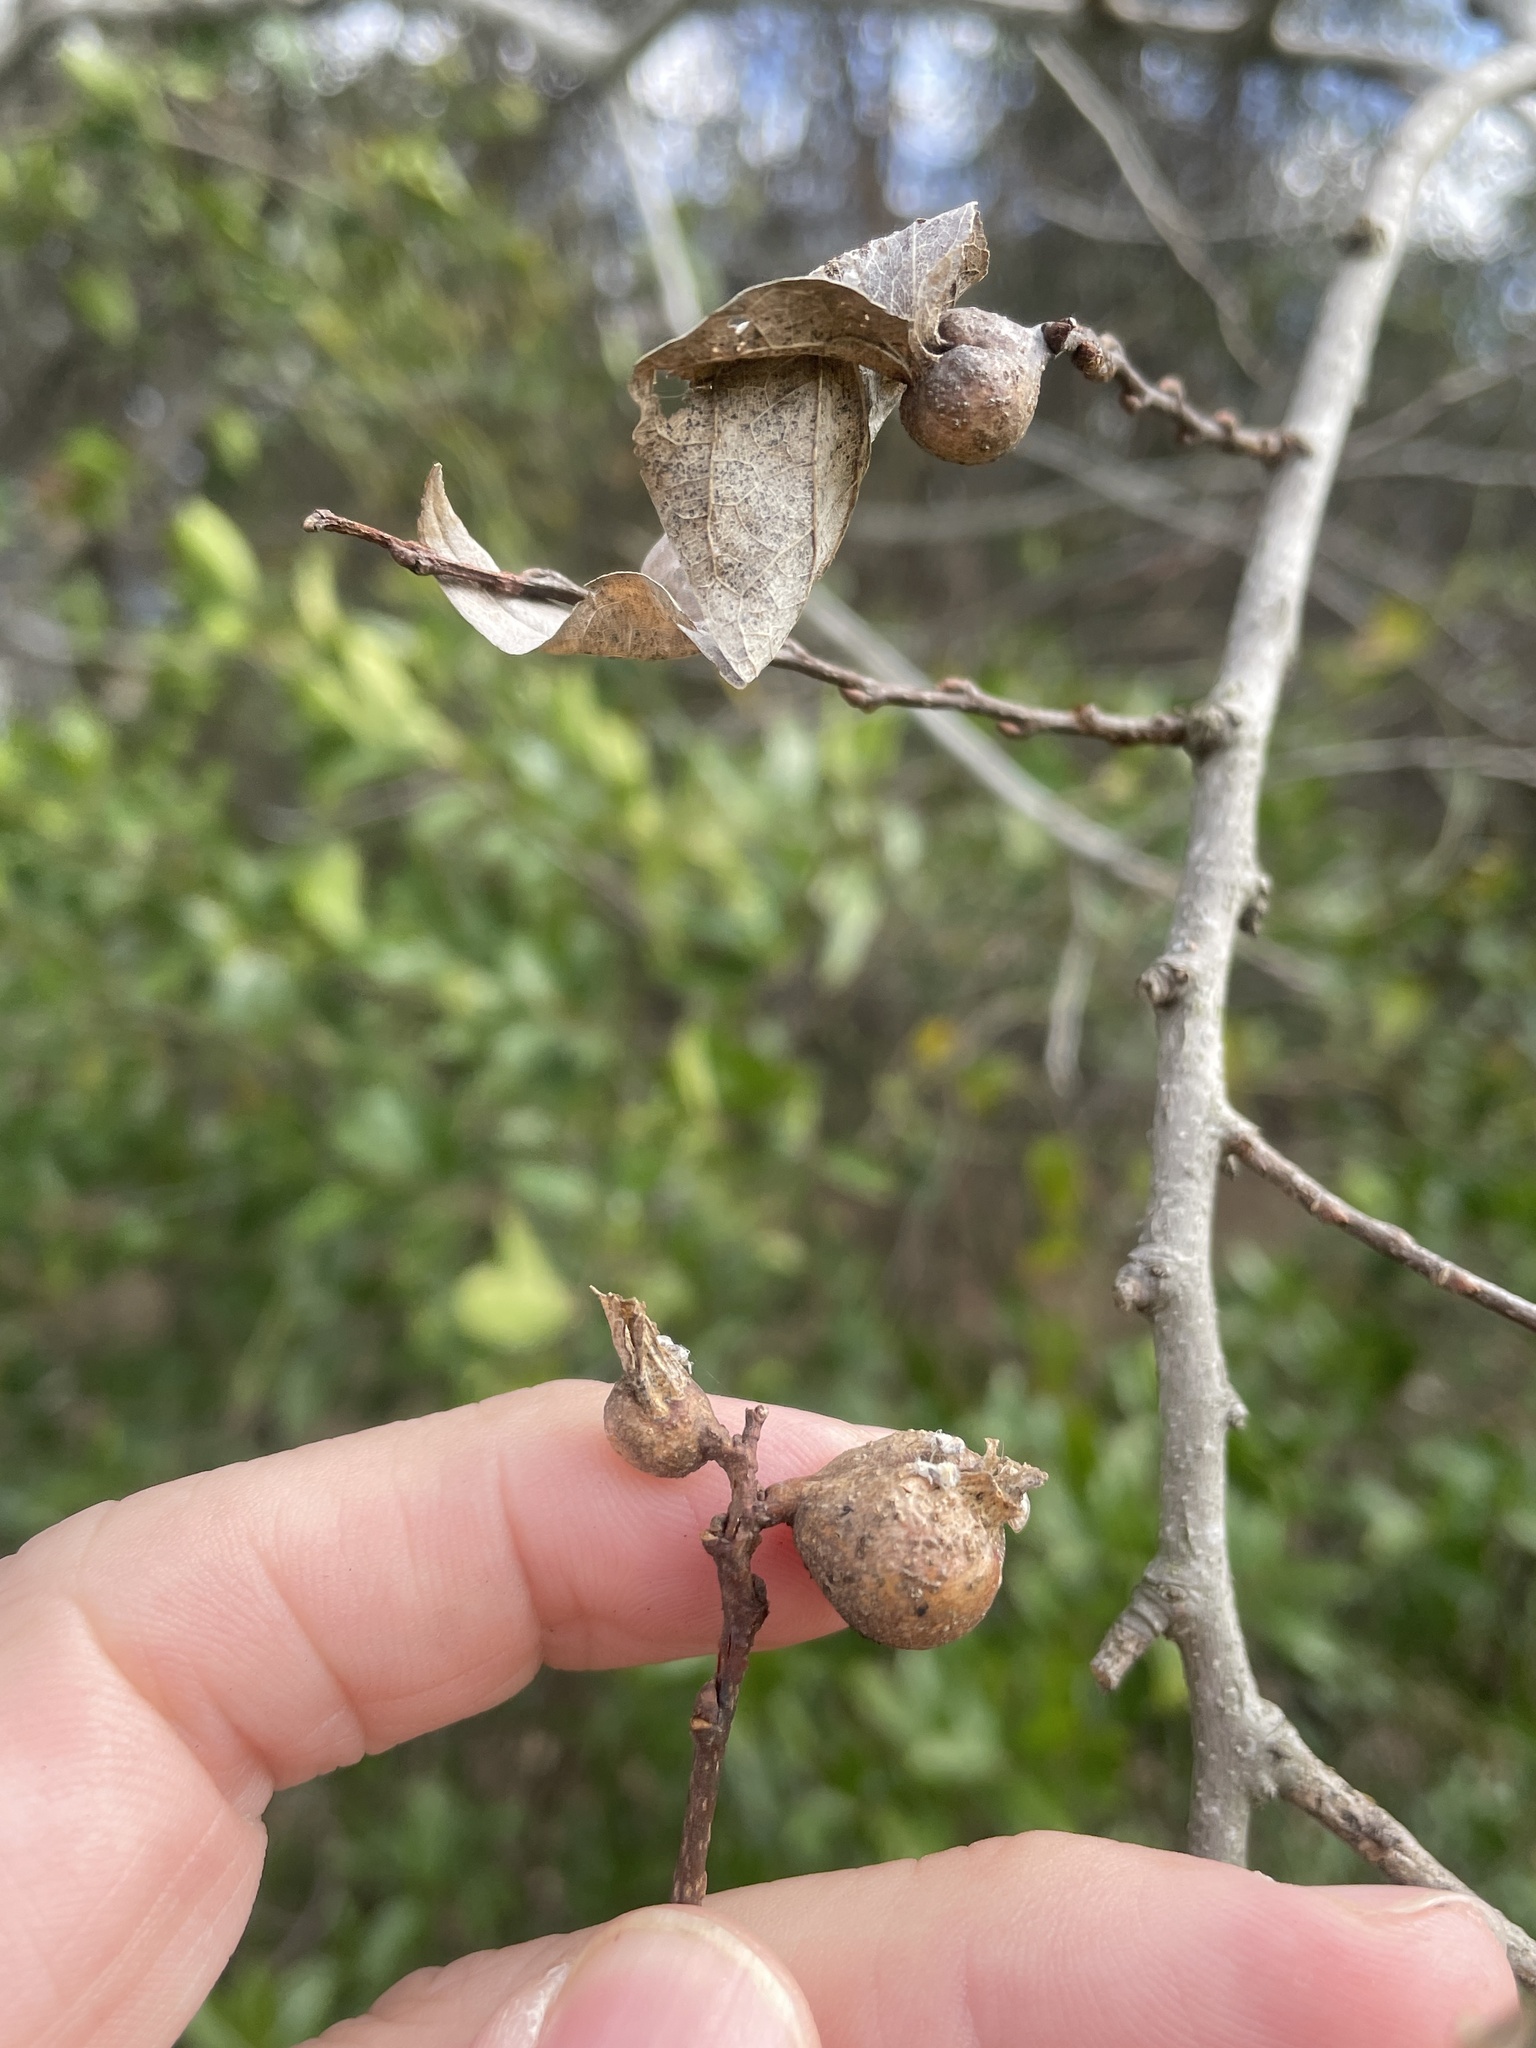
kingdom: Animalia
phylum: Arthropoda
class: Insecta
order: Hemiptera
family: Aphalaridae
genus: Pachypsylla
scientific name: Pachypsylla venusta
